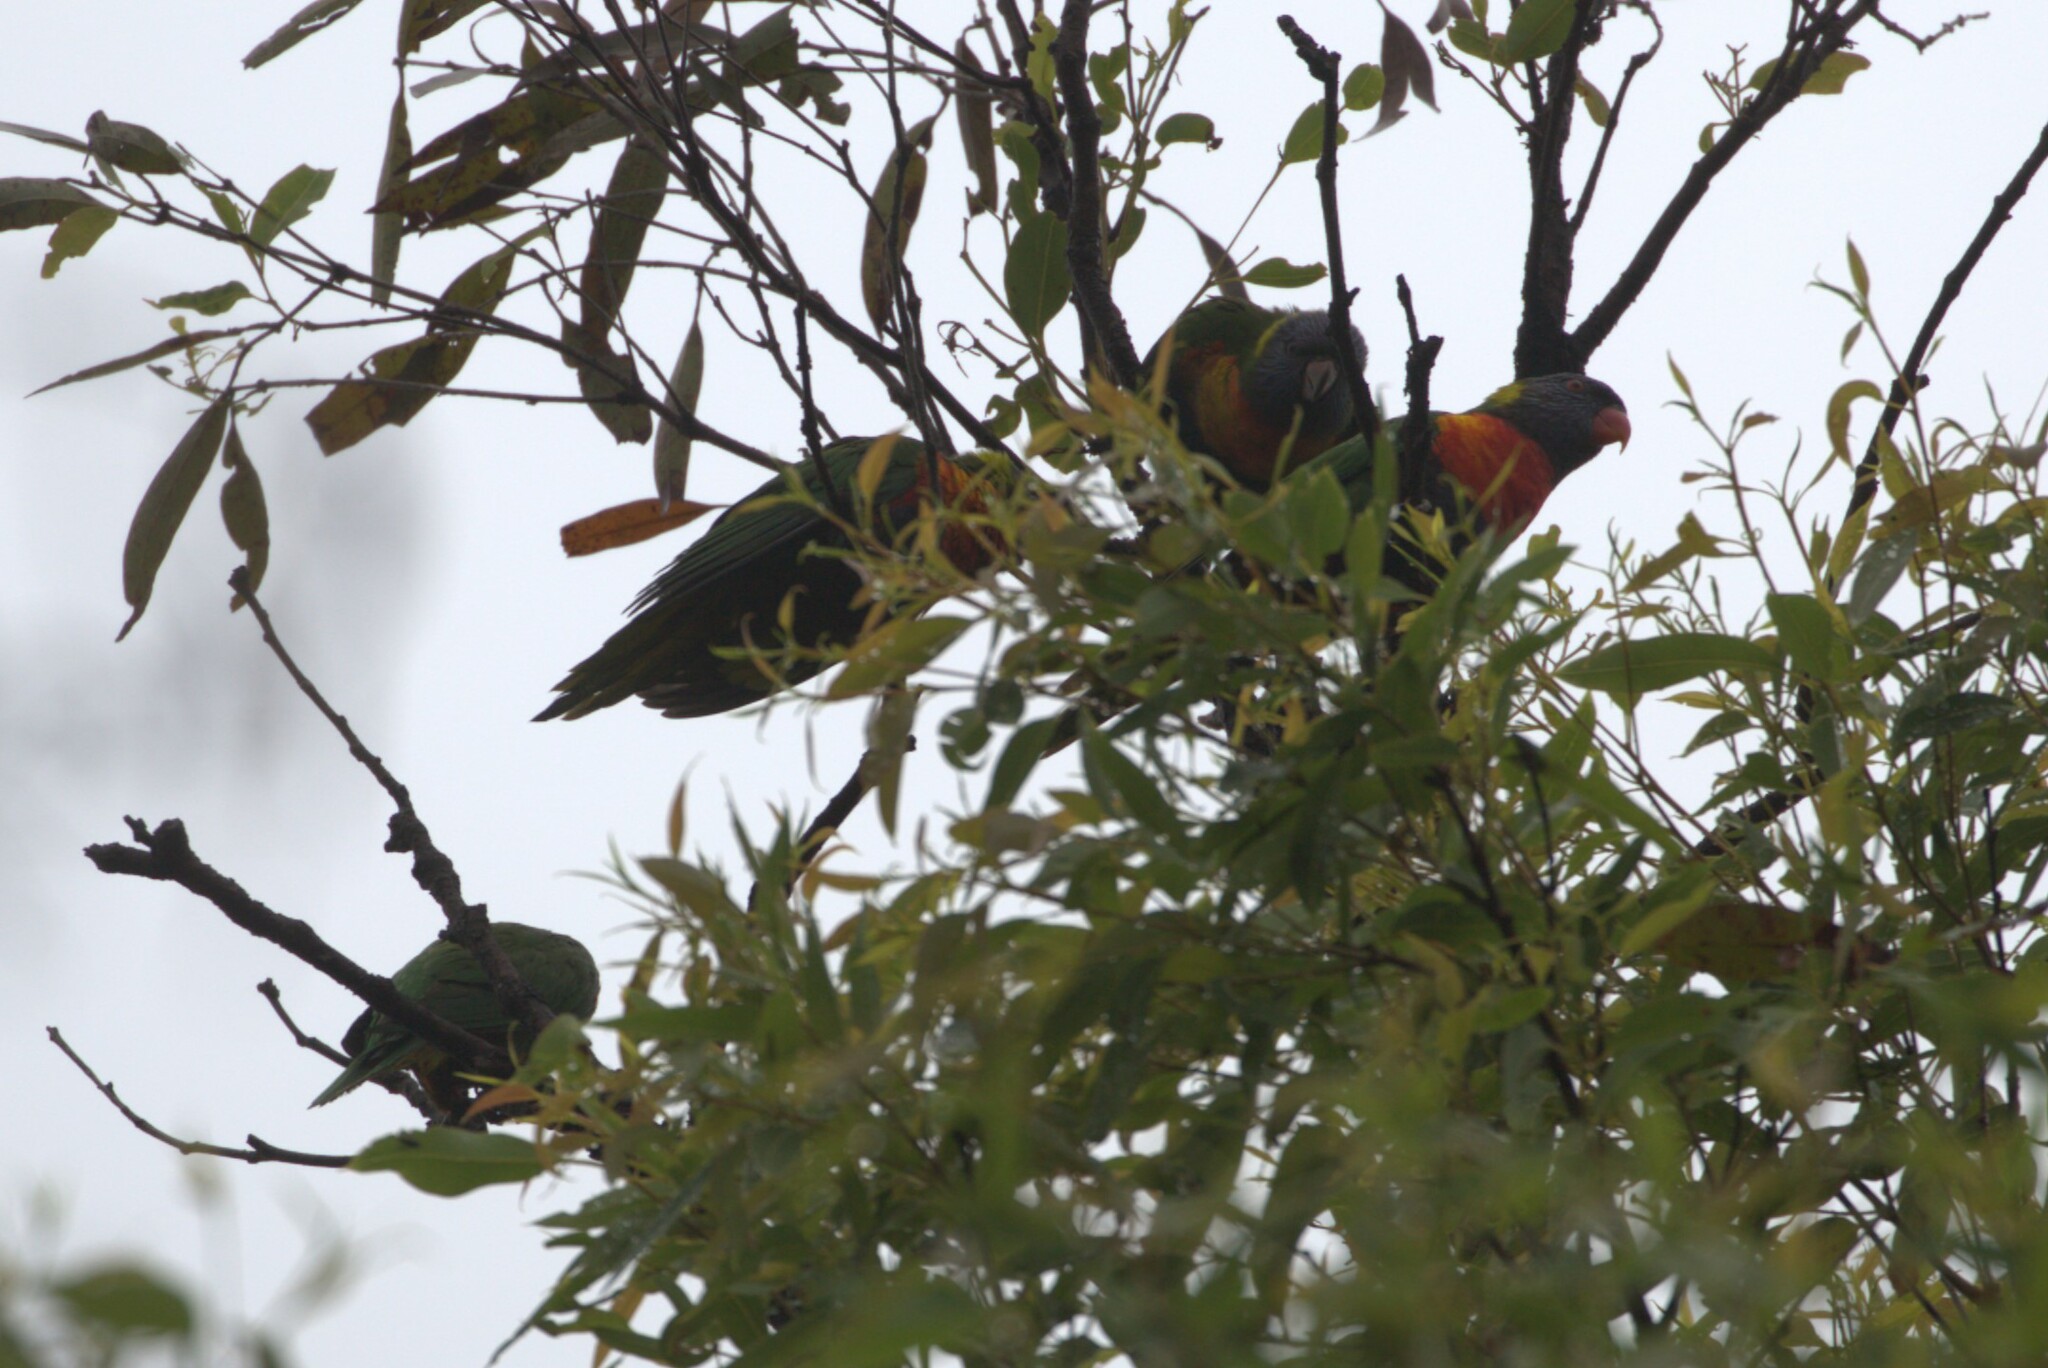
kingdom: Animalia
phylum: Chordata
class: Aves
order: Psittaciformes
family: Psittacidae
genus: Trichoglossus
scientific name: Trichoglossus haematodus
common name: Coconut lorikeet
